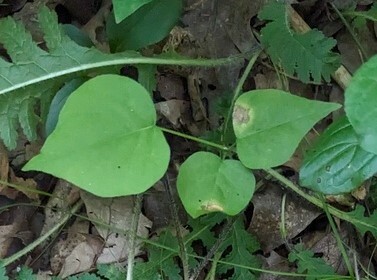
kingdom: Plantae
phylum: Tracheophyta
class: Magnoliopsida
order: Fabales
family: Fabaceae
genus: Hylodesmum
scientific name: Hylodesmum glutinosum
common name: Clustered-leaved tick-trefoil
